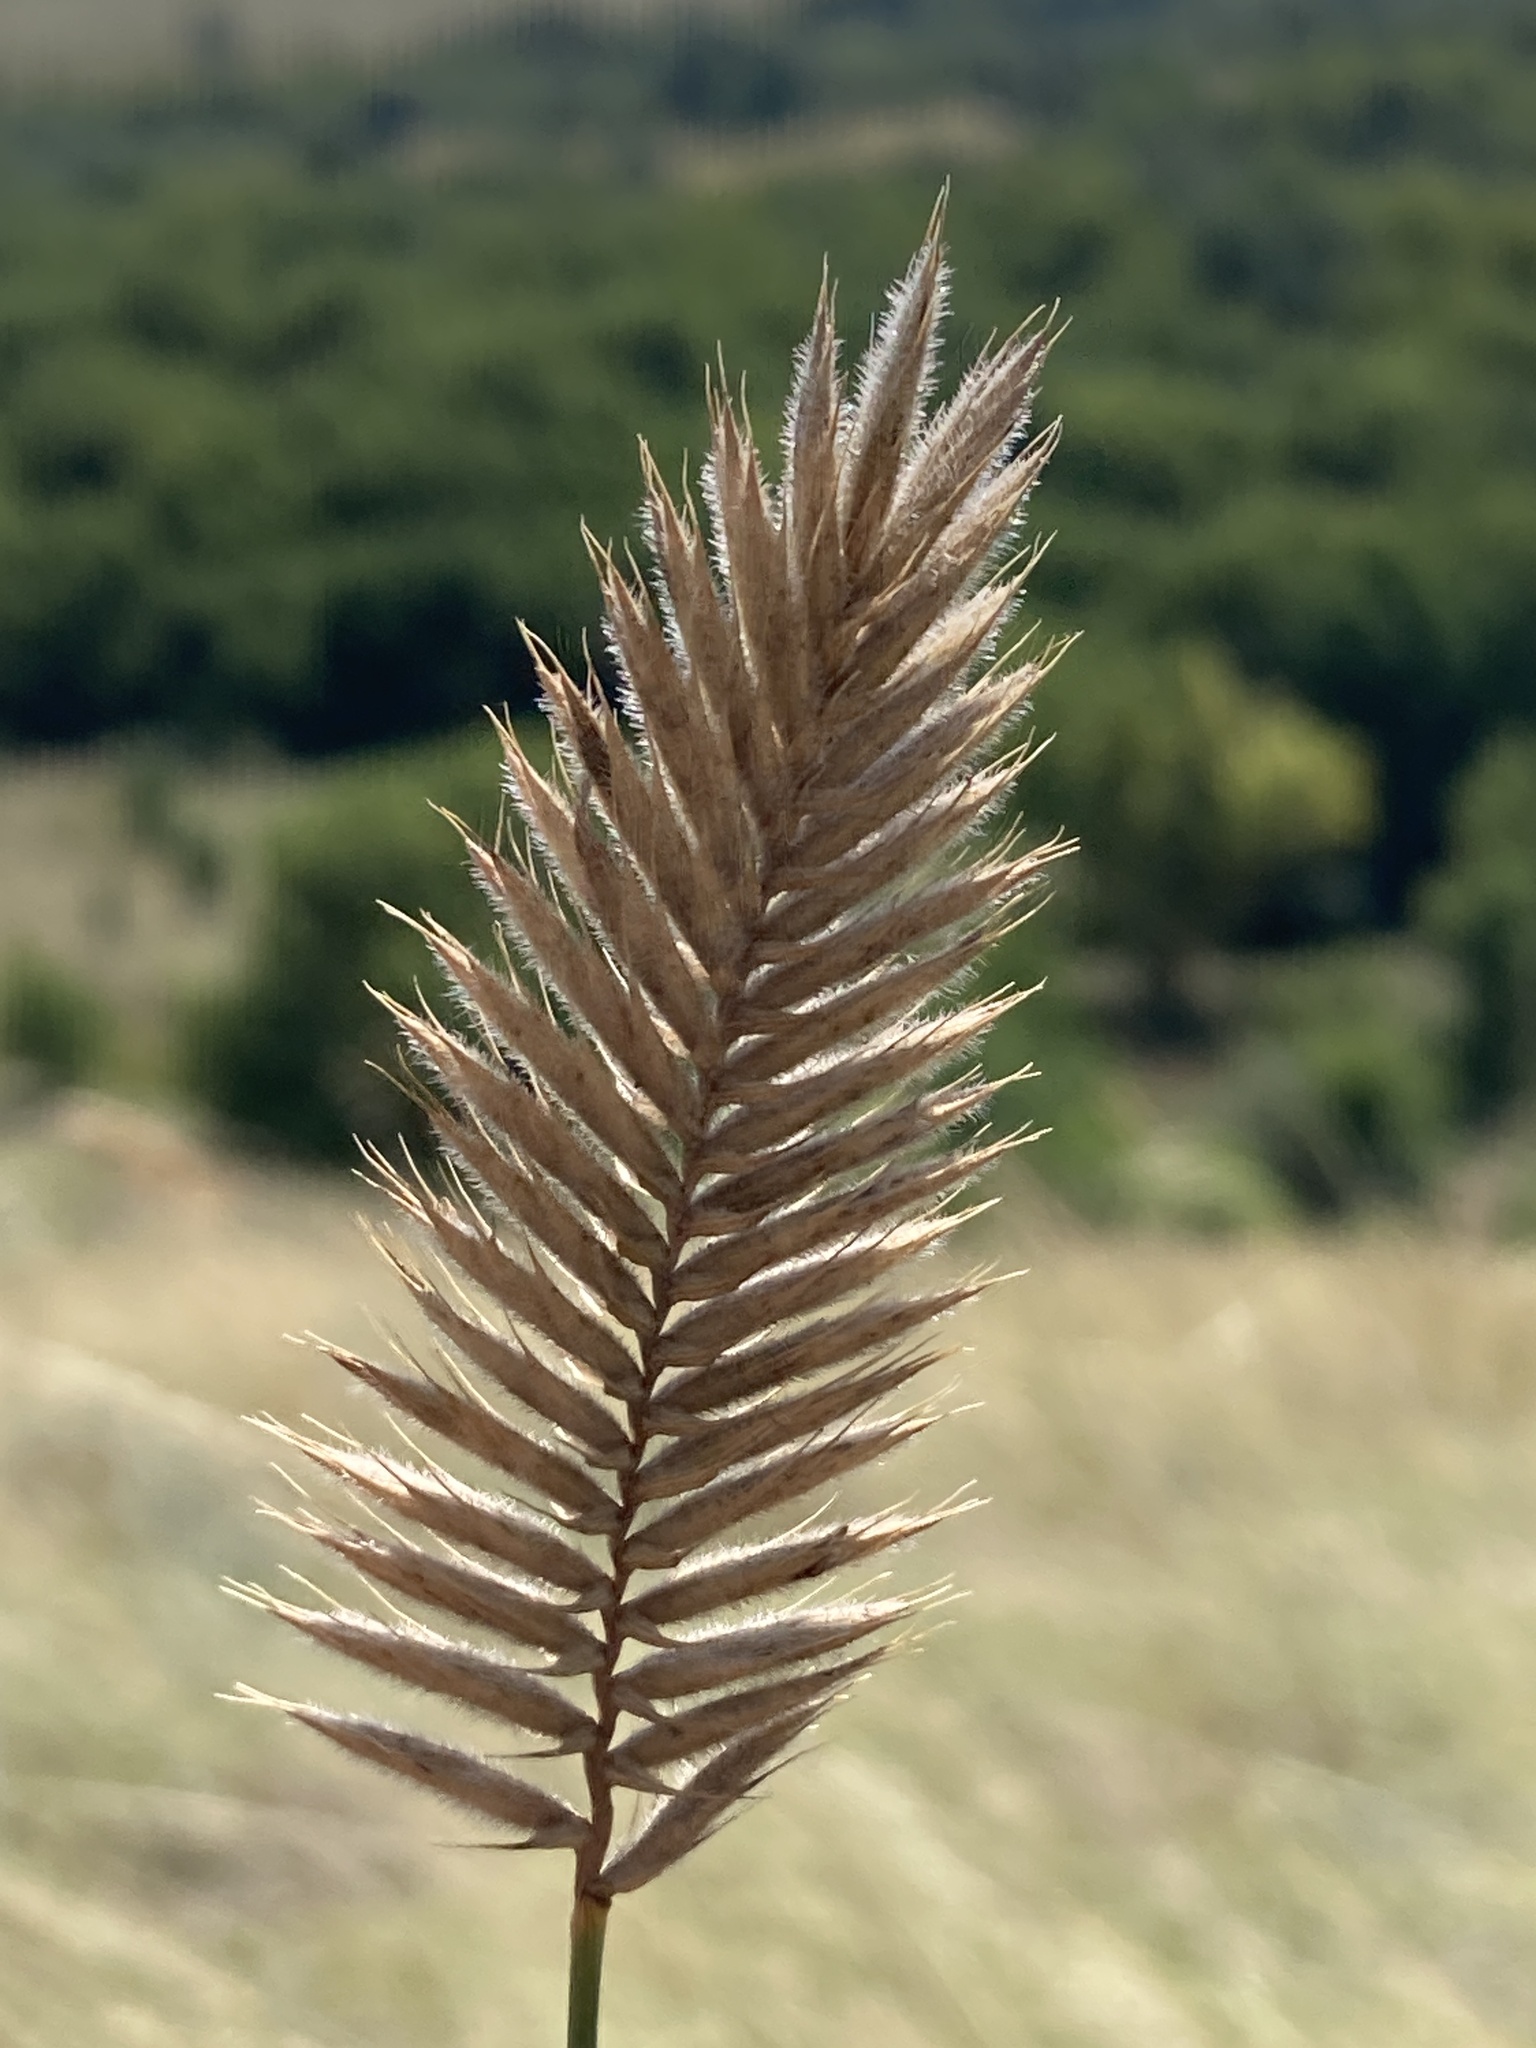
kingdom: Plantae
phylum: Tracheophyta
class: Liliopsida
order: Poales
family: Poaceae
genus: Agropyron
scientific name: Agropyron cristatum
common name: Crested wheatgrass
